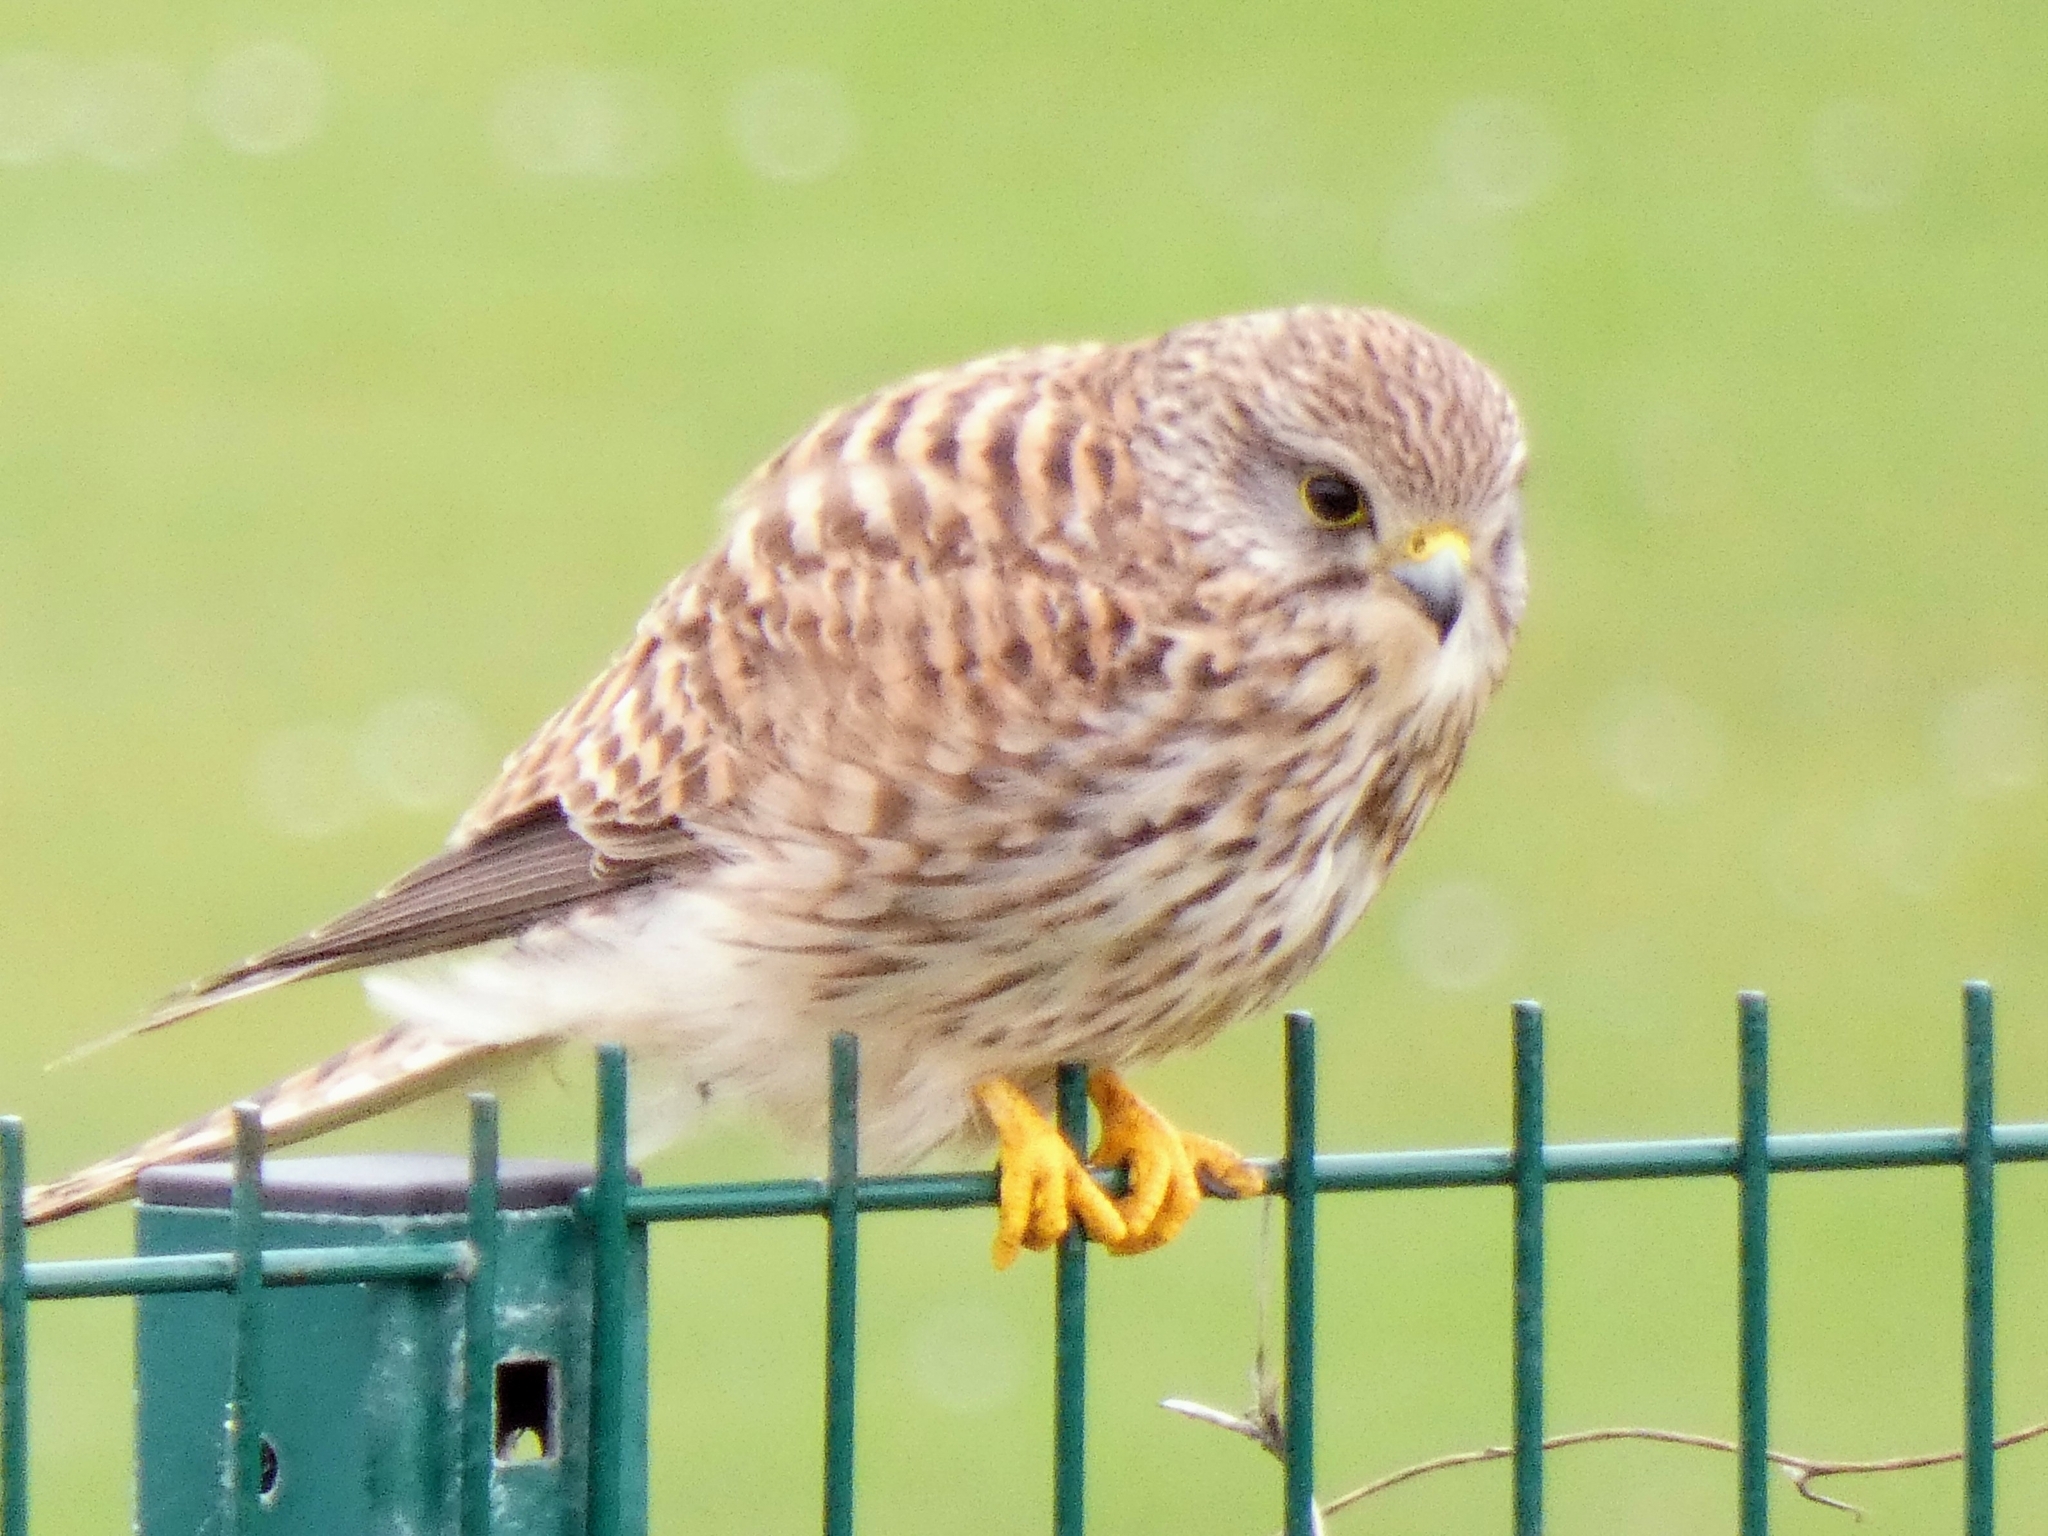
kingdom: Animalia
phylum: Chordata
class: Aves
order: Falconiformes
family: Falconidae
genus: Falco
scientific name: Falco tinnunculus
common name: Common kestrel
